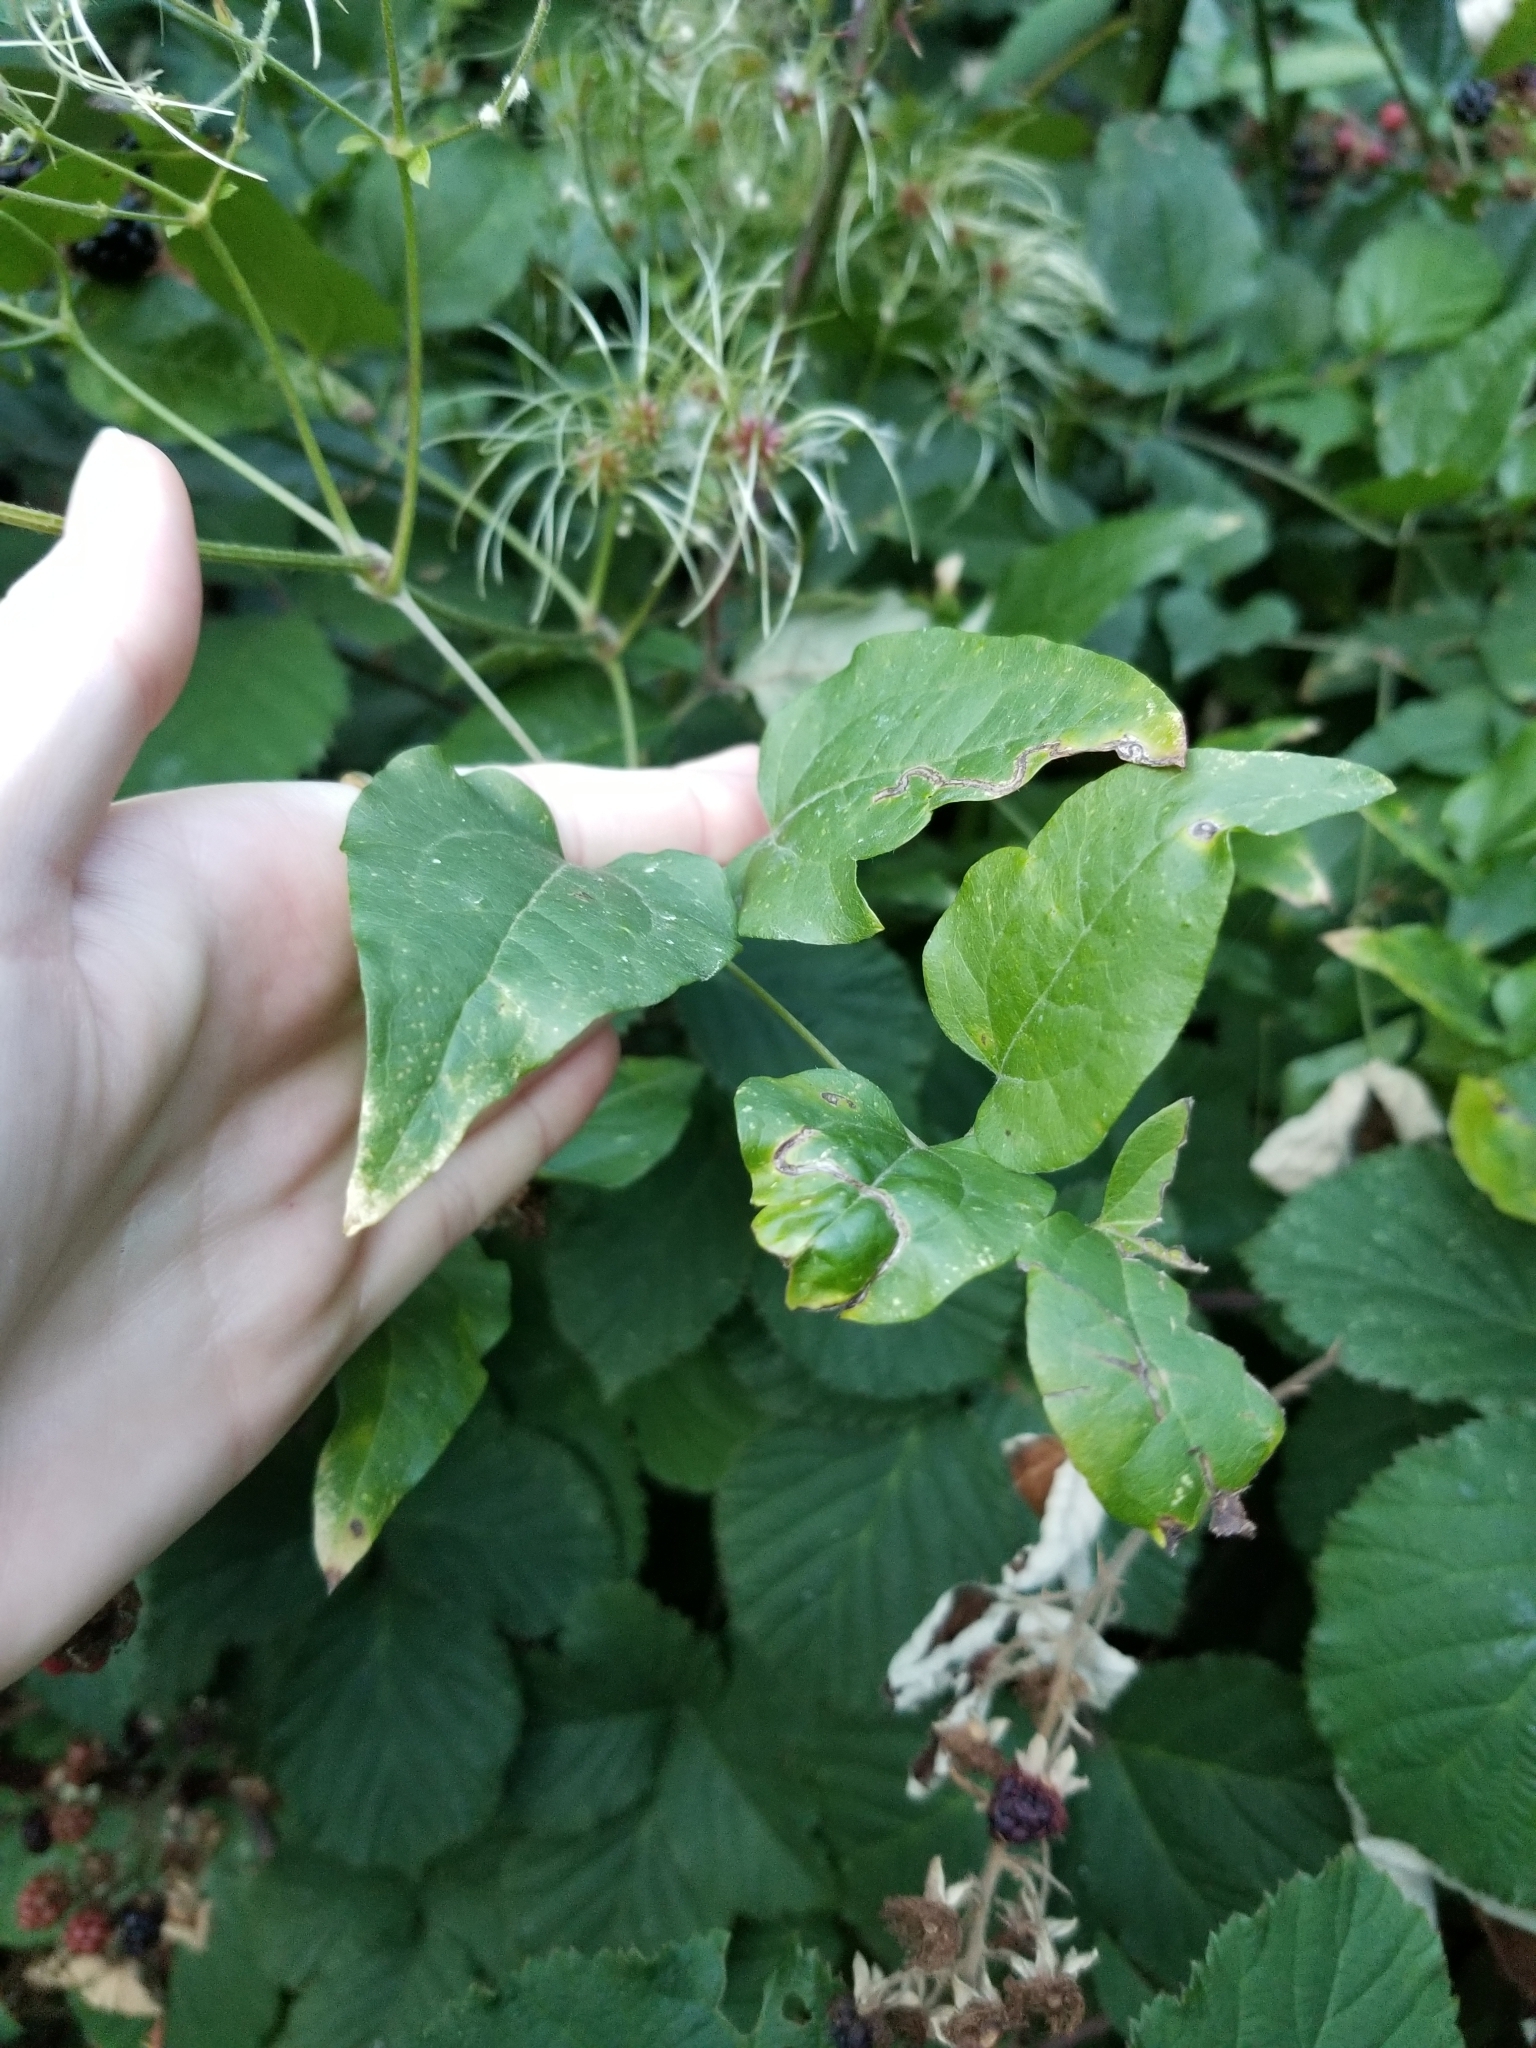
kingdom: Plantae
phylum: Tracheophyta
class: Magnoliopsida
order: Ranunculales
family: Ranunculaceae
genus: Clematis
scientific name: Clematis vitalba
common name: Evergreen clematis
